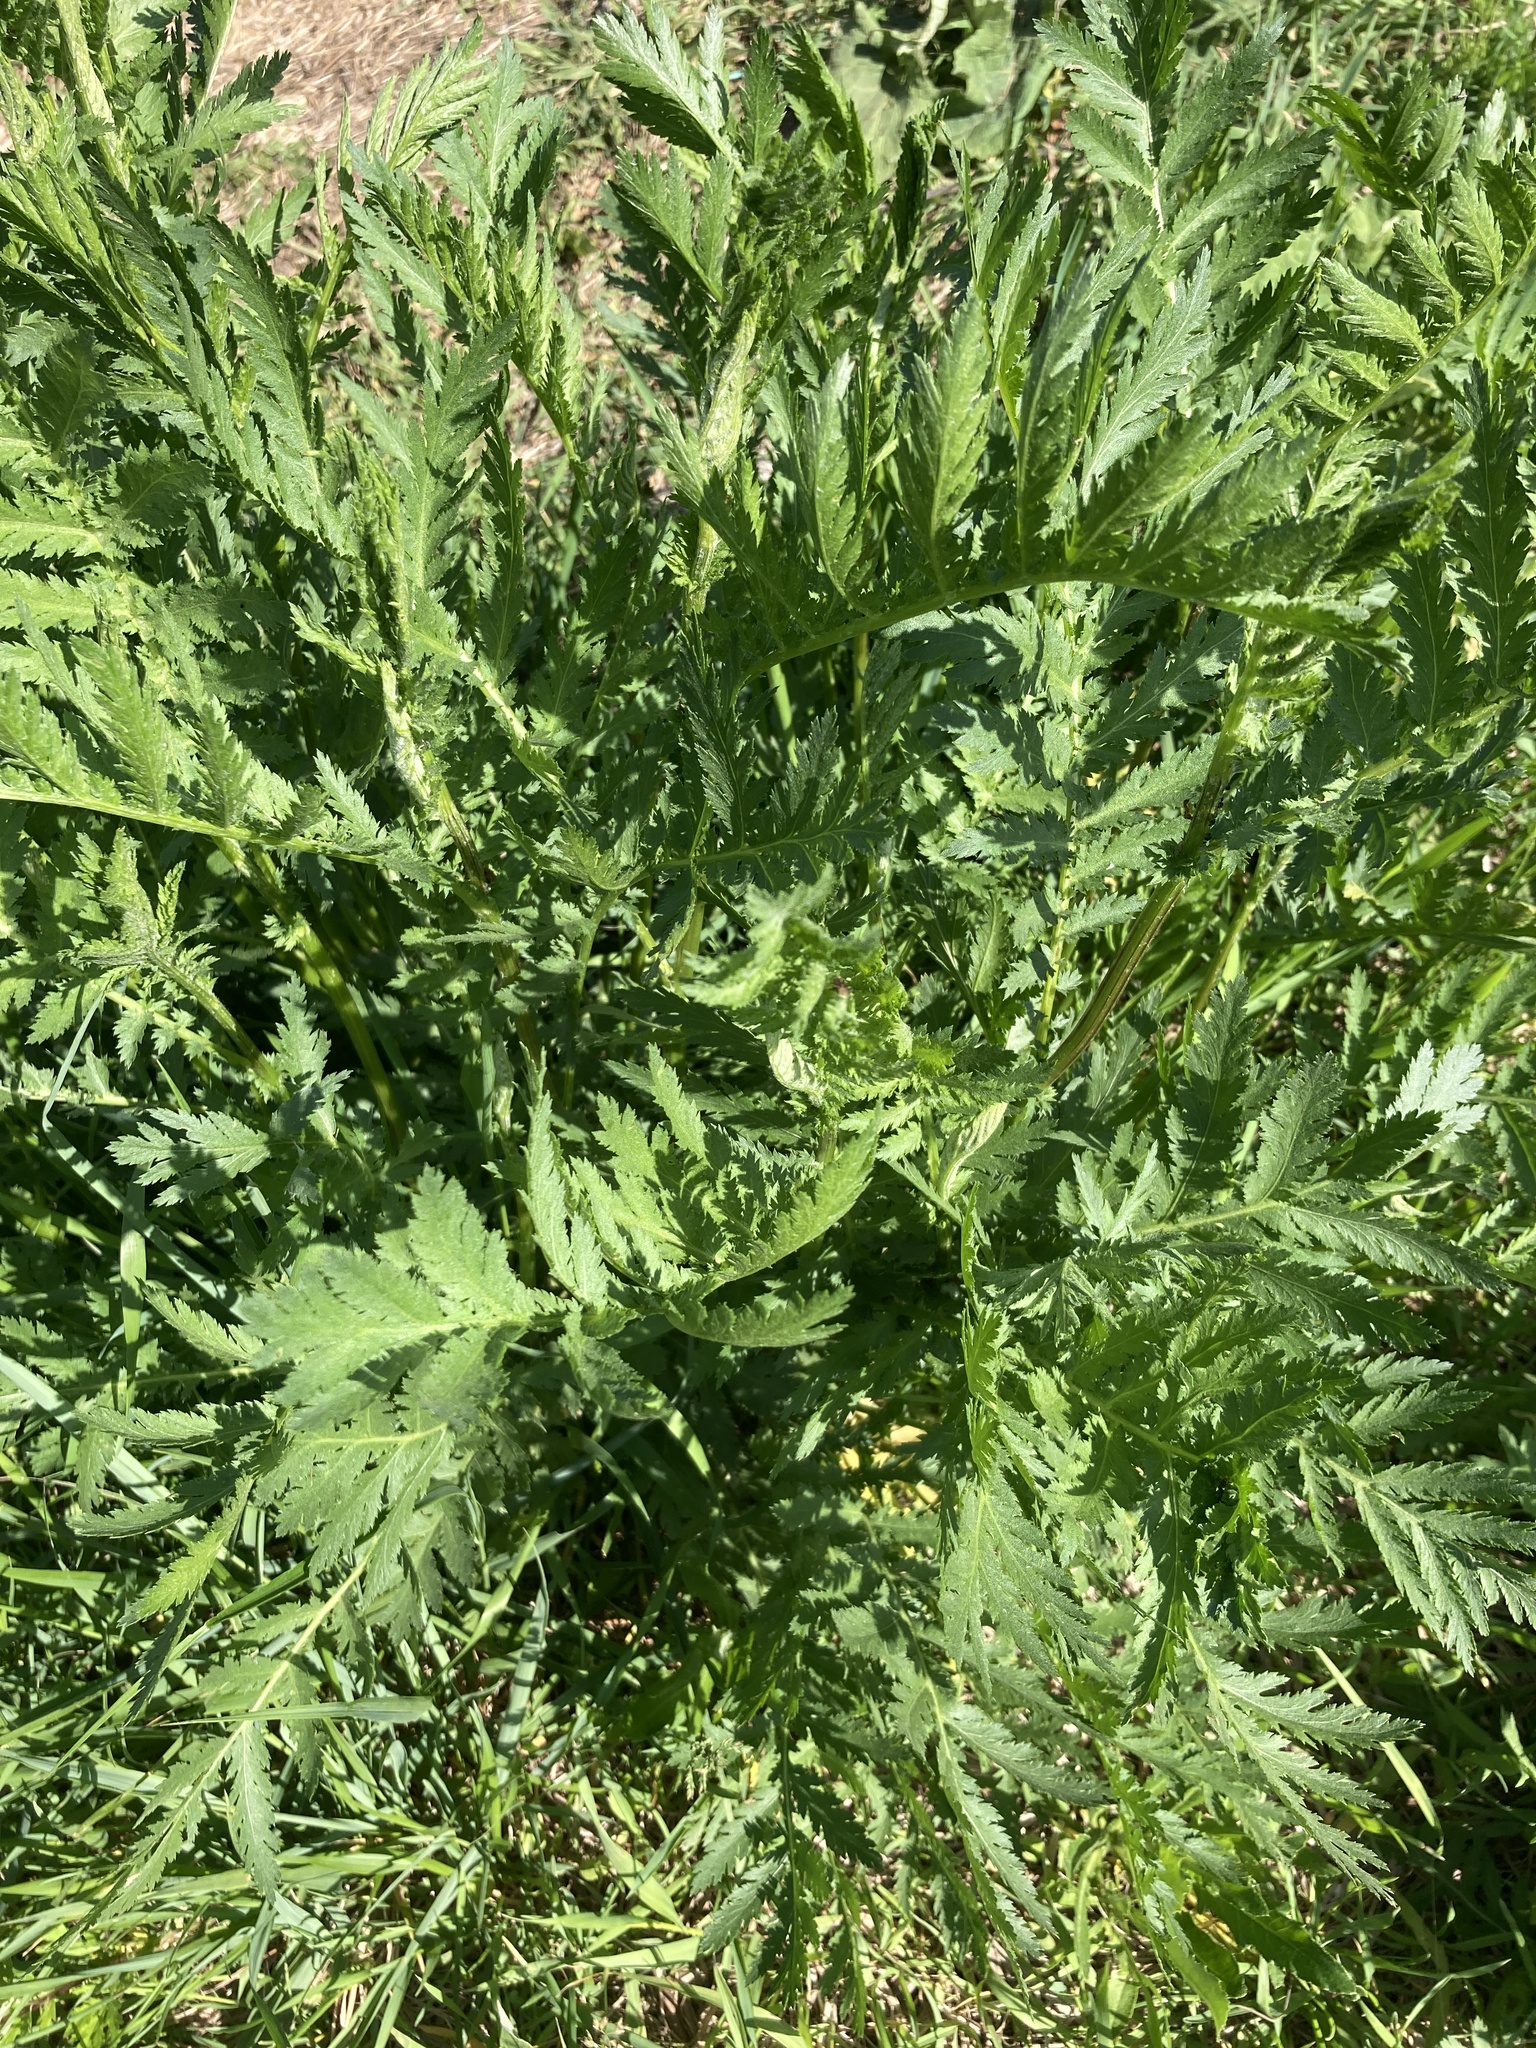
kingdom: Plantae
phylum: Tracheophyta
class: Magnoliopsida
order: Asterales
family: Asteraceae
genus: Tanacetum
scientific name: Tanacetum vulgare
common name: Common tansy
